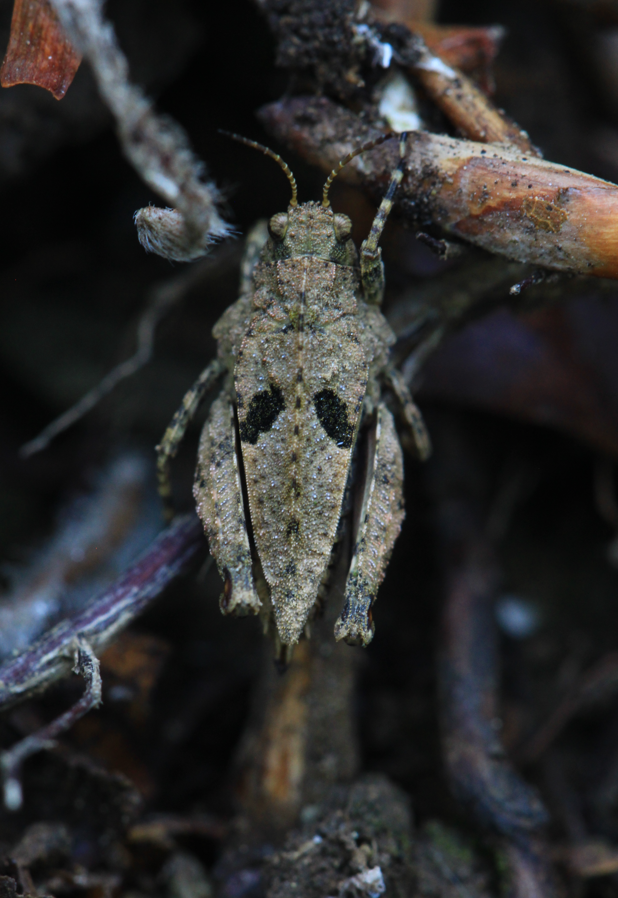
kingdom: Animalia
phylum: Arthropoda
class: Insecta
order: Orthoptera
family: Tetrigidae
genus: Tetrix
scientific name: Tetrix transsylvanica
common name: Transsylvanian wingless groundhopper
